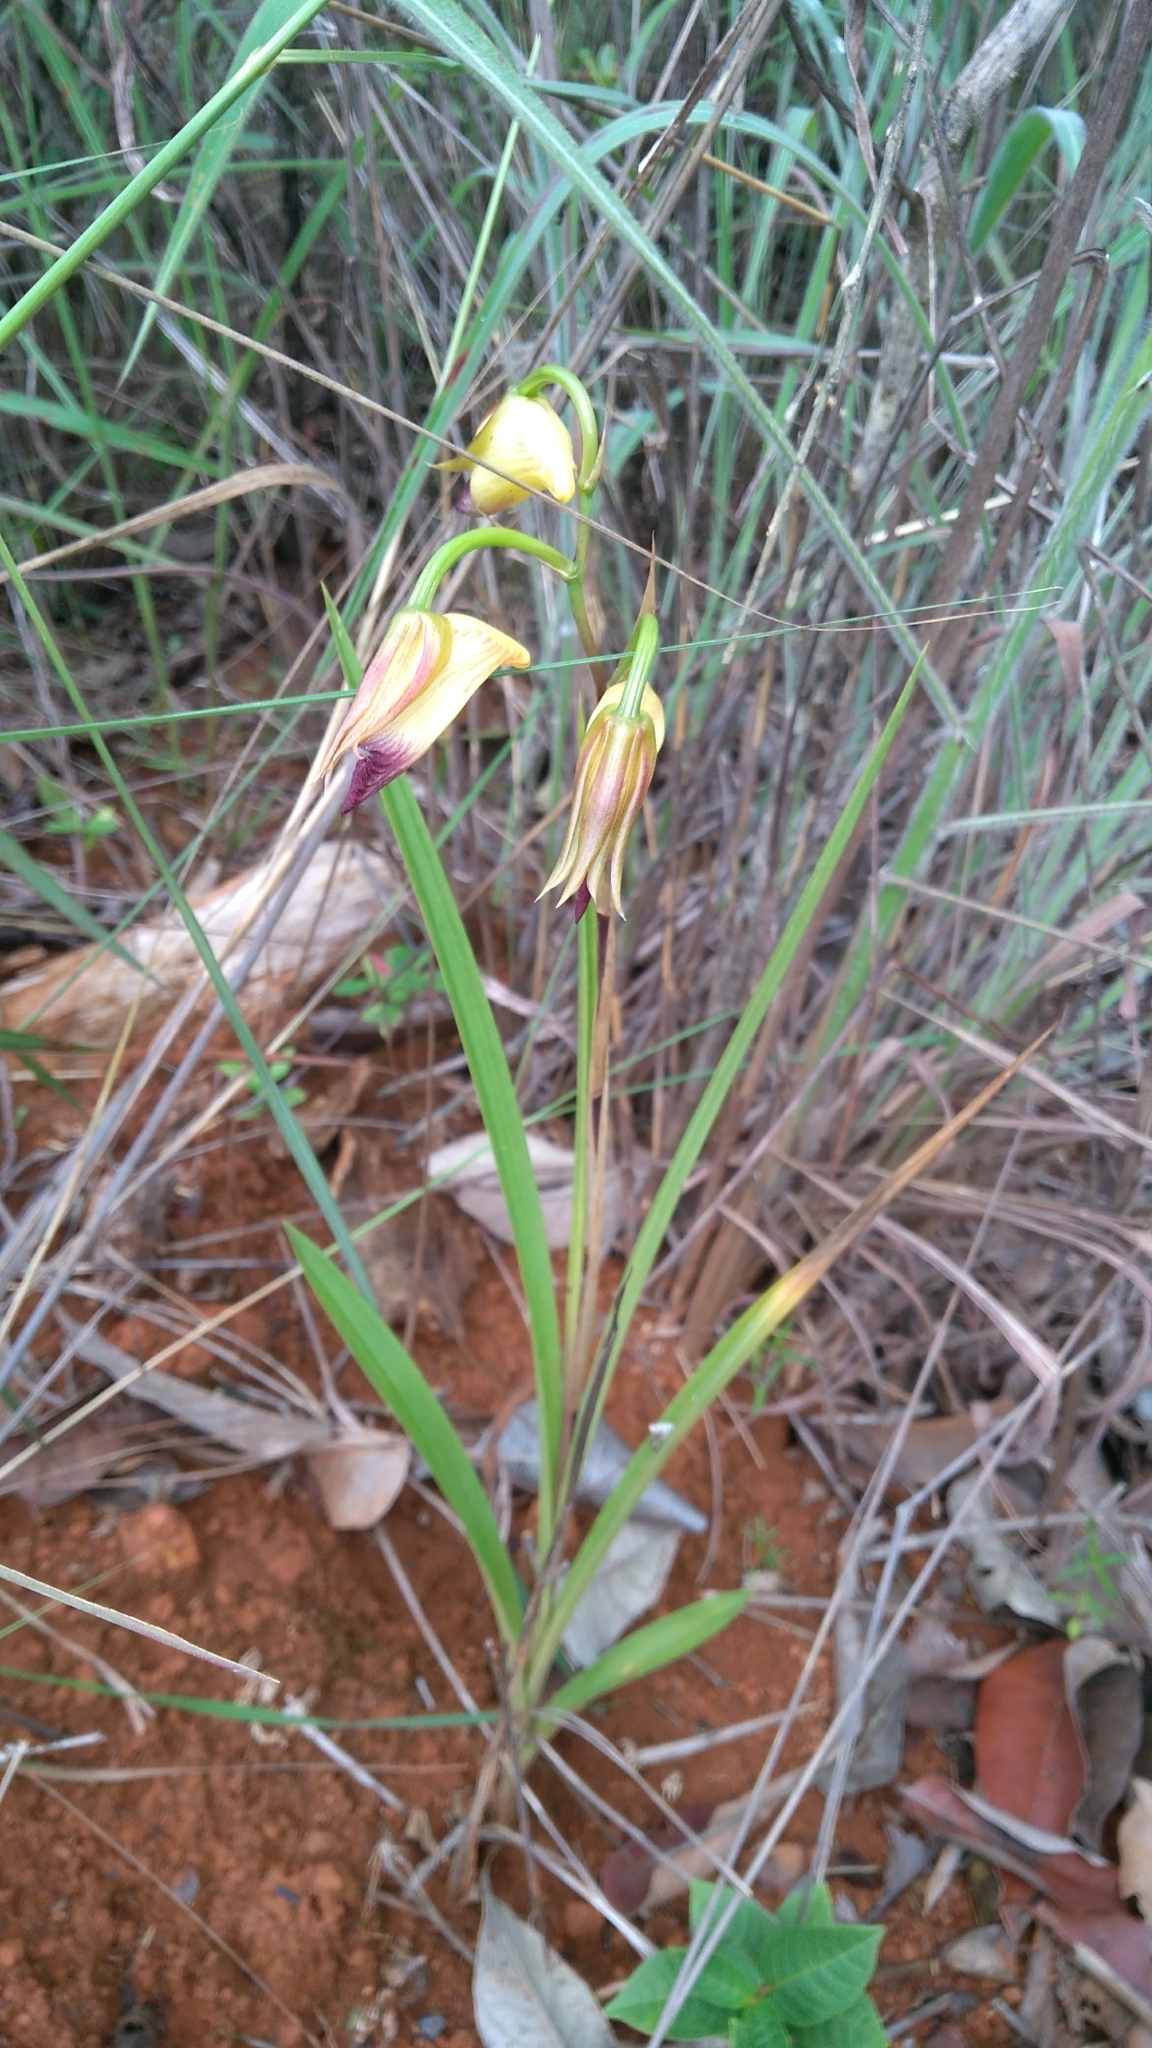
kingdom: Plantae
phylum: Tracheophyta
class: Liliopsida
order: Asparagales
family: Orchidaceae
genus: Galeandra
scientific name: Galeandra montana
